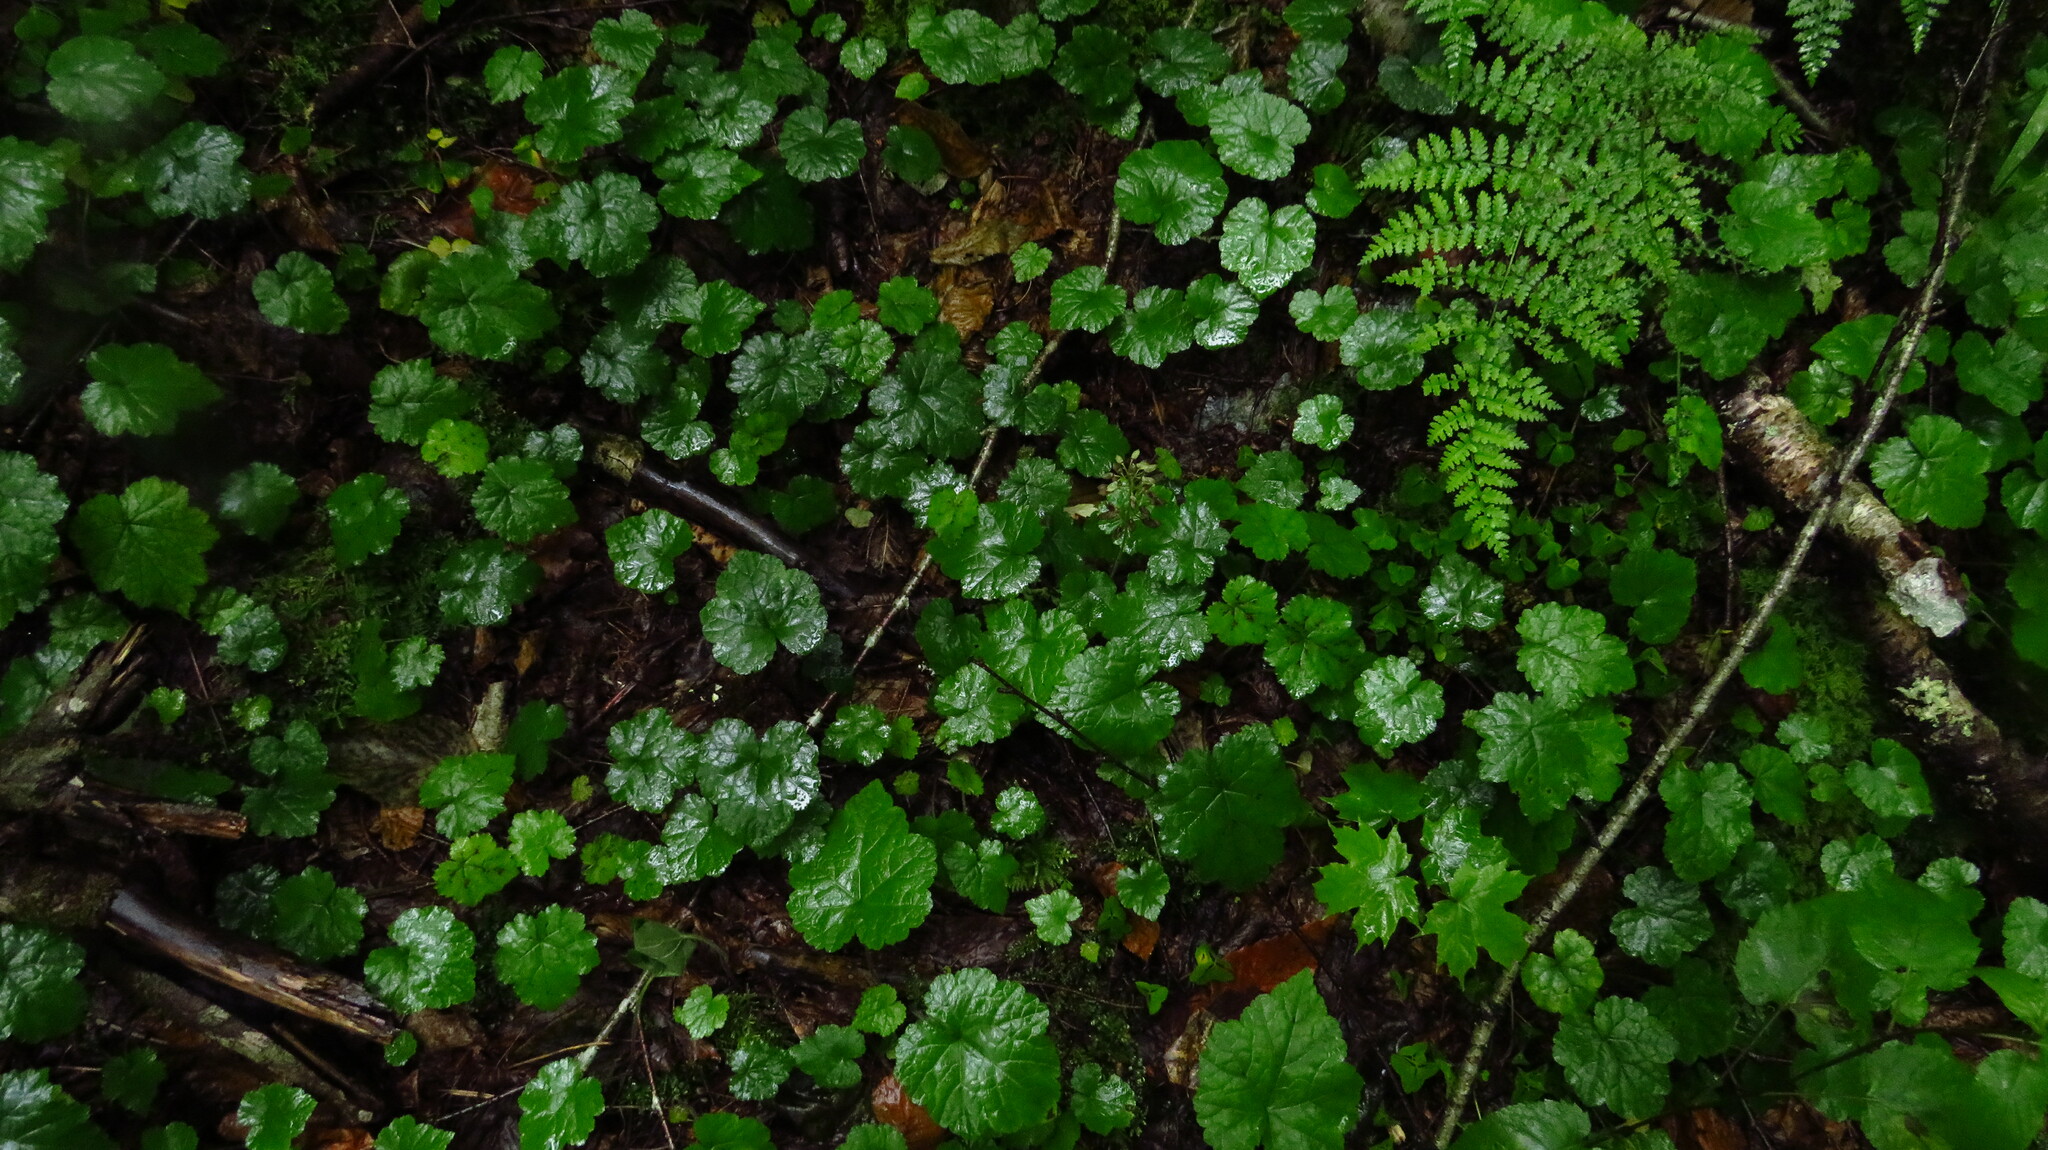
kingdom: Plantae
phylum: Tracheophyta
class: Magnoliopsida
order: Saxifragales
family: Saxifragaceae
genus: Tiarella
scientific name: Tiarella stolonifera
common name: Stoloniferous foamflower
